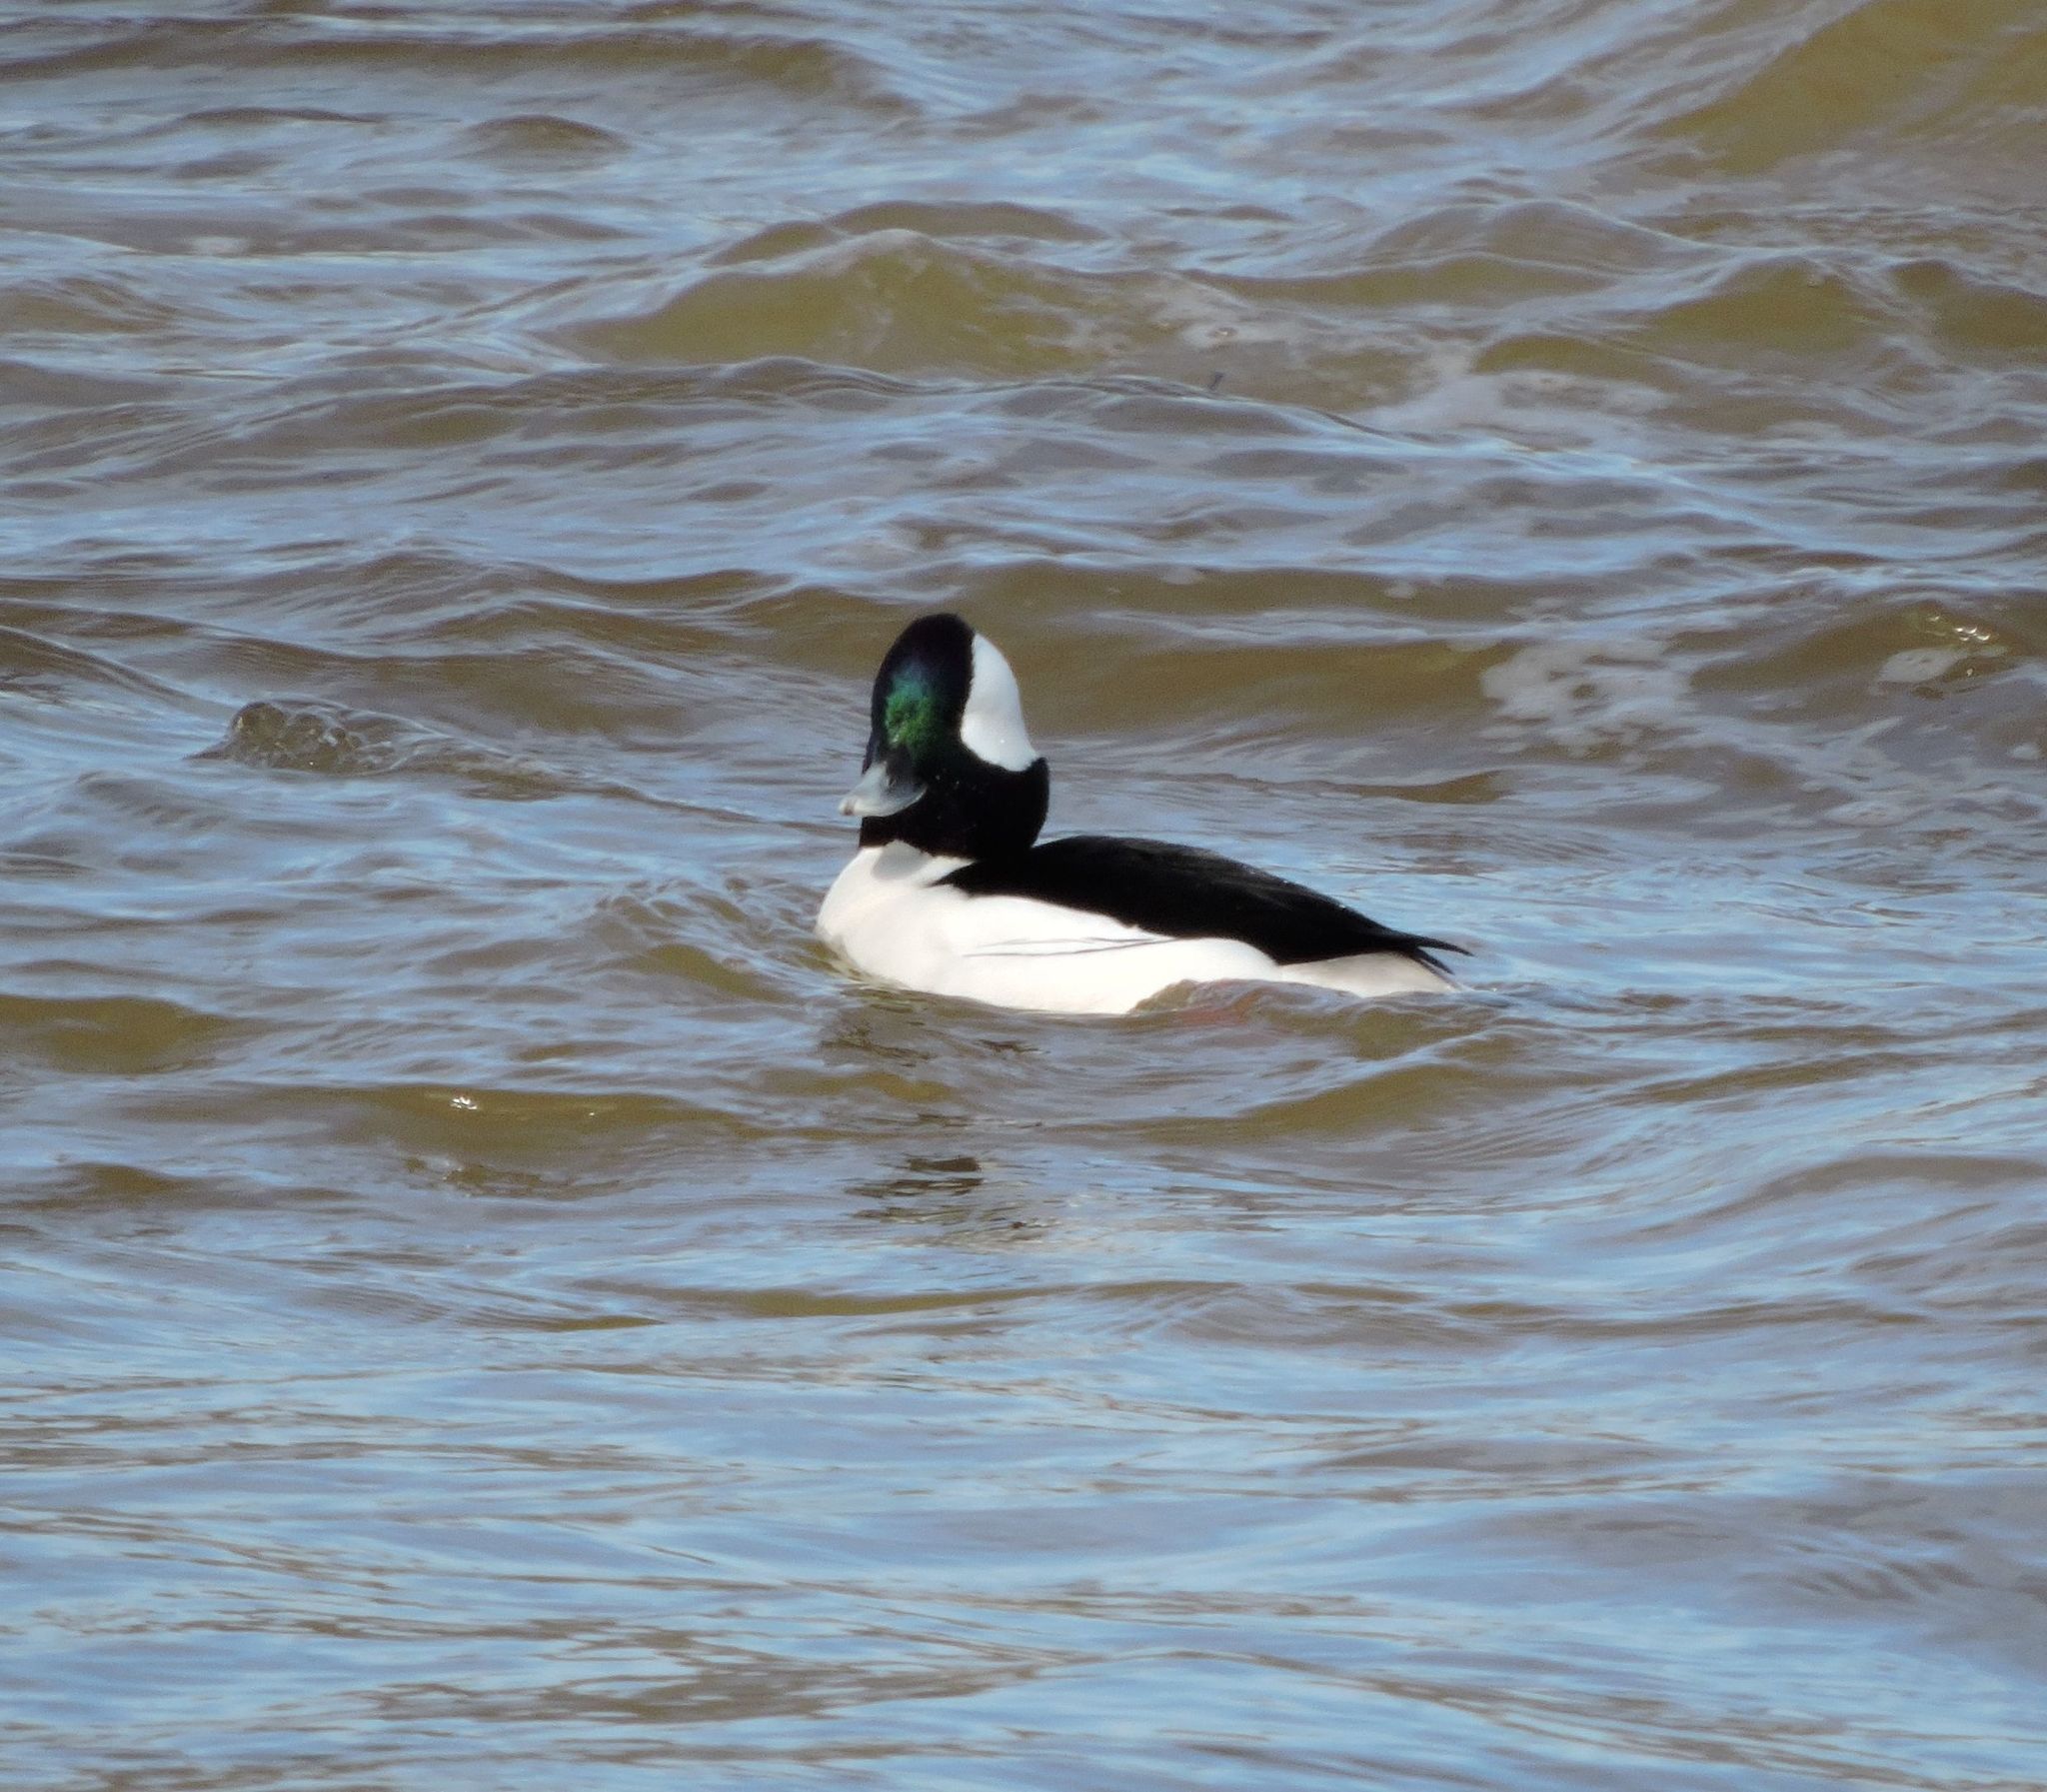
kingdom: Animalia
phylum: Chordata
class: Aves
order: Anseriformes
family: Anatidae
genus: Bucephala
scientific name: Bucephala albeola
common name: Bufflehead
